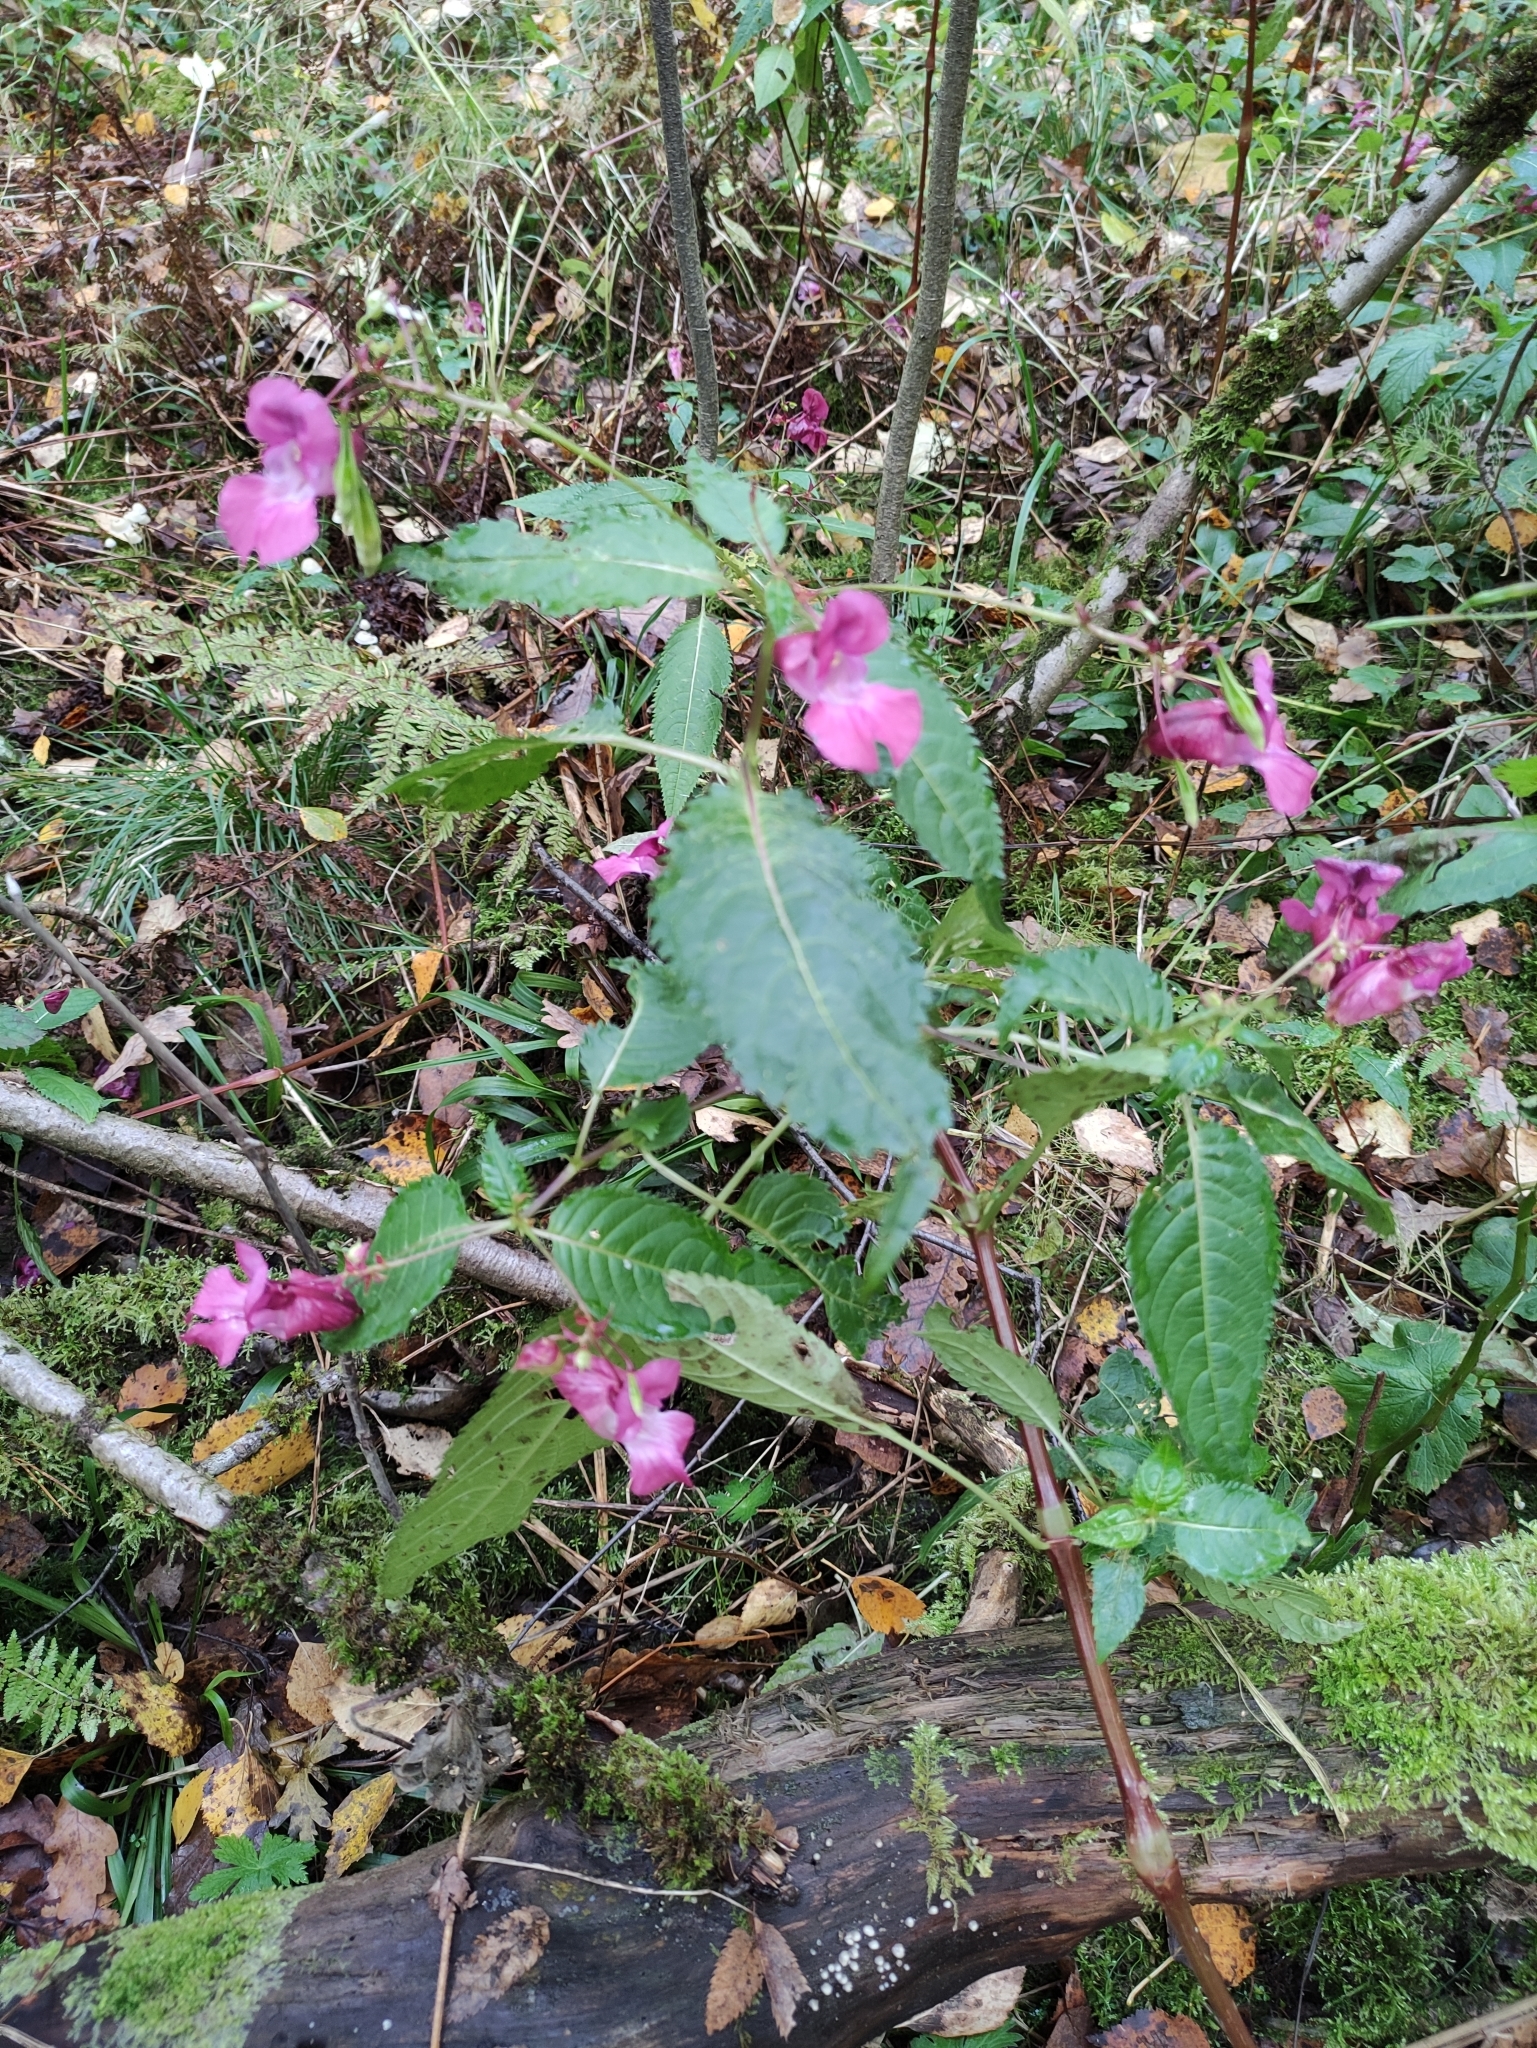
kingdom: Plantae
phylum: Tracheophyta
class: Magnoliopsida
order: Ericales
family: Balsaminaceae
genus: Impatiens
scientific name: Impatiens glandulifera
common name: Himalayan balsam
